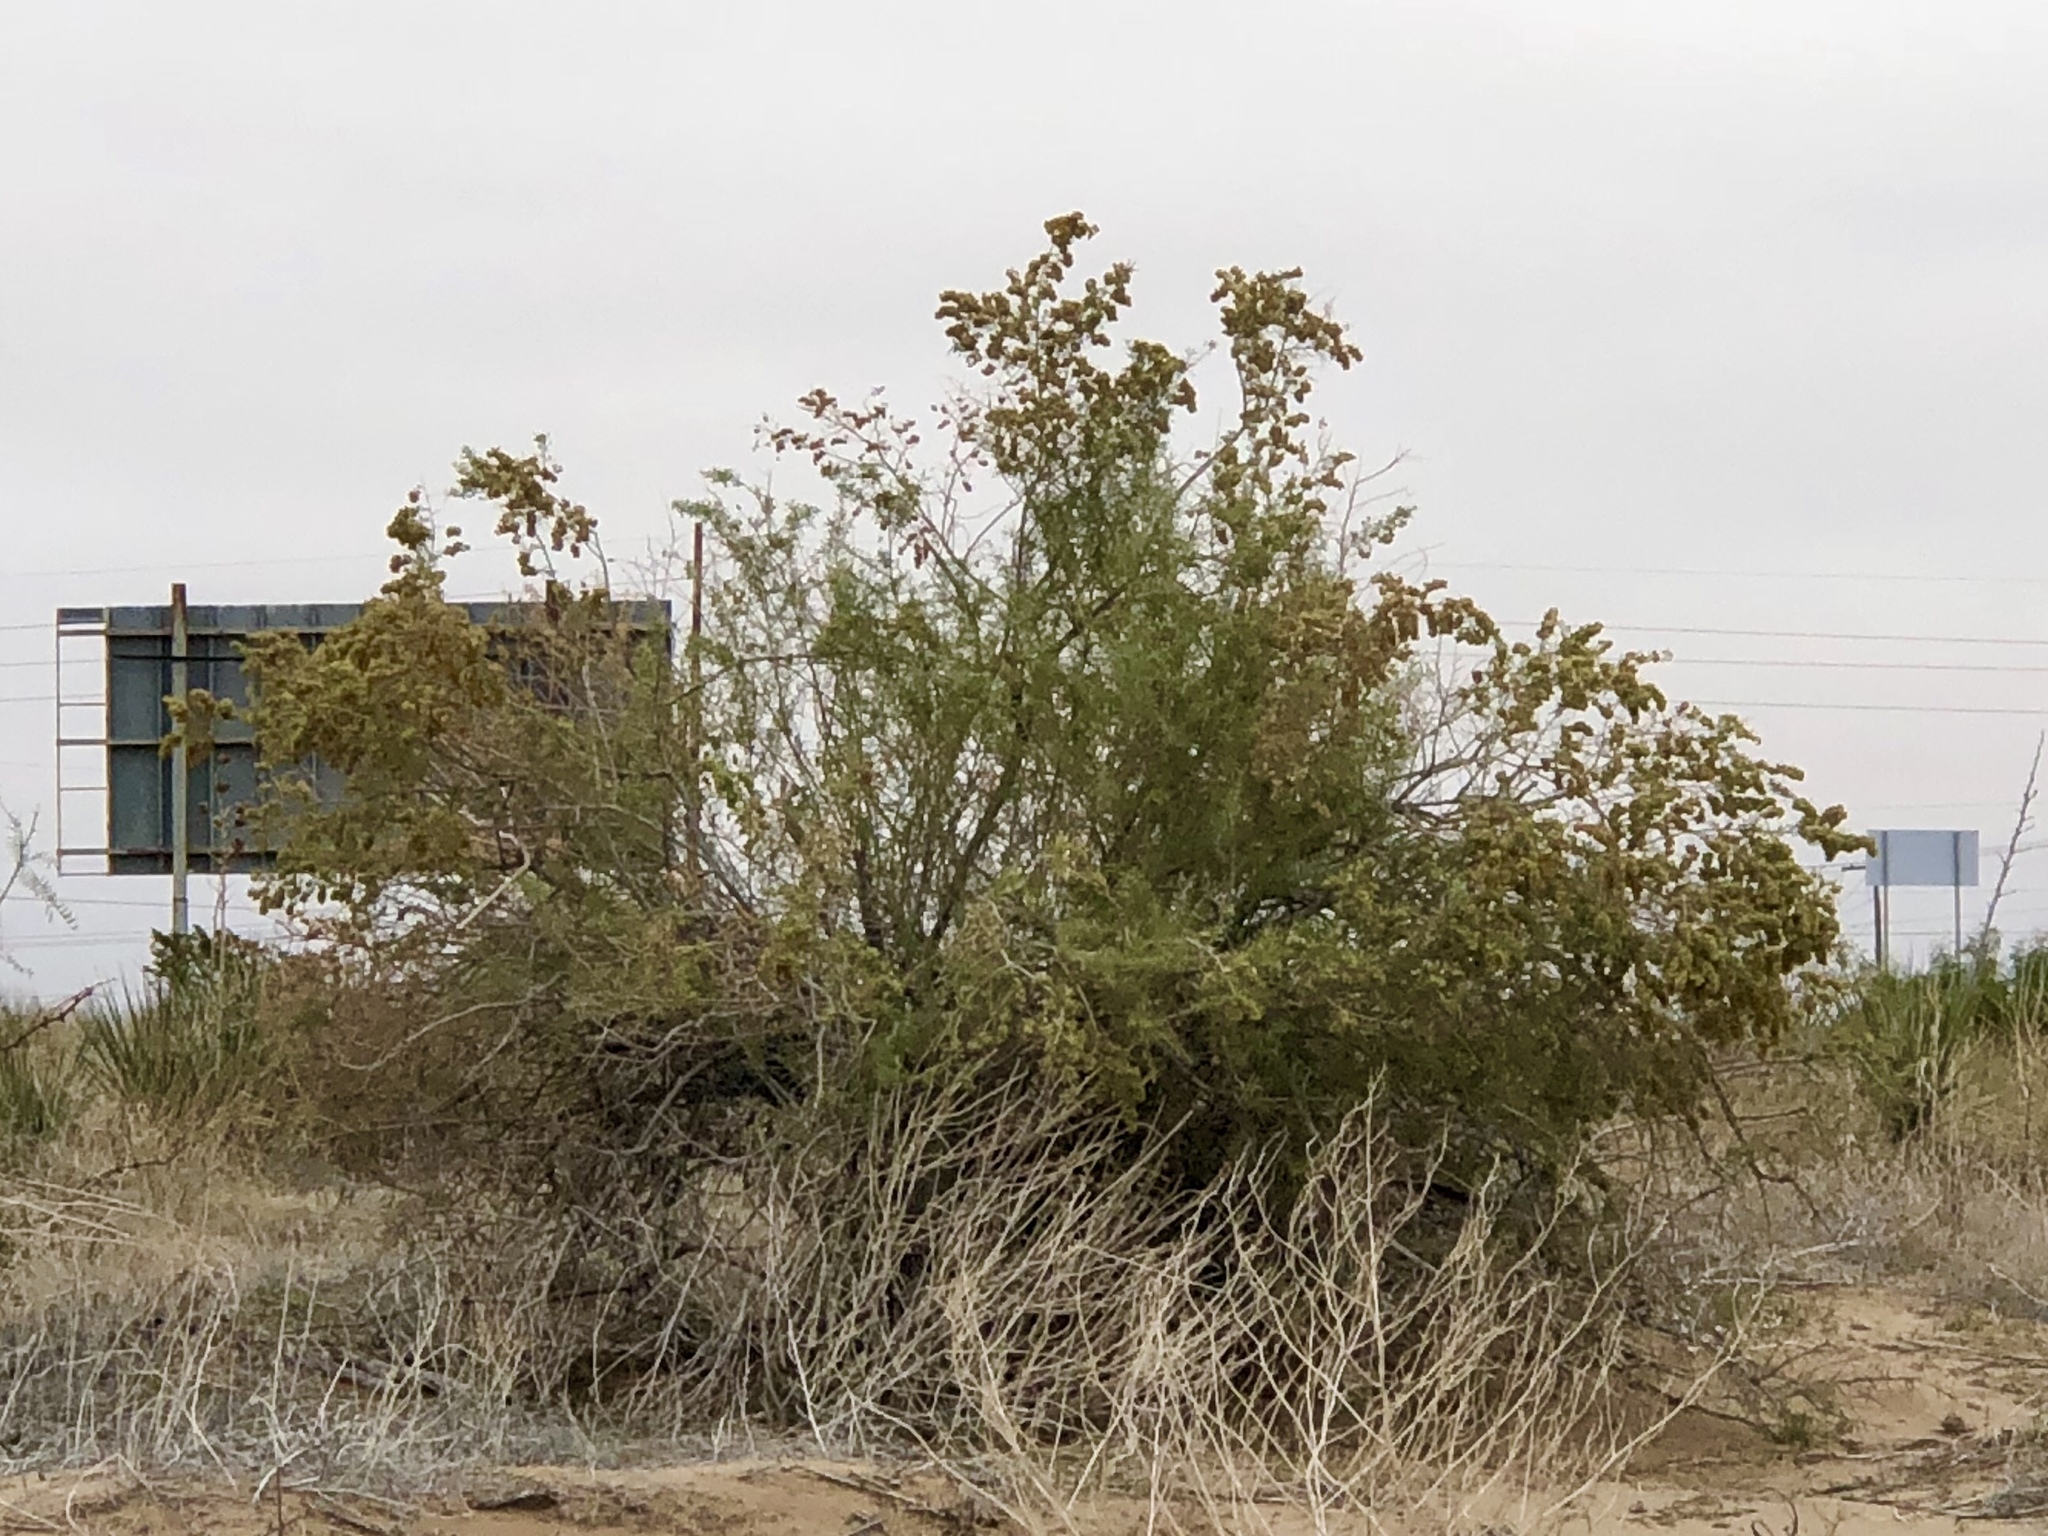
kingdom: Plantae
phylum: Tracheophyta
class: Magnoliopsida
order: Caryophyllales
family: Amaranthaceae
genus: Atriplex
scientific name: Atriplex canescens
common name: Four-wing saltbush
